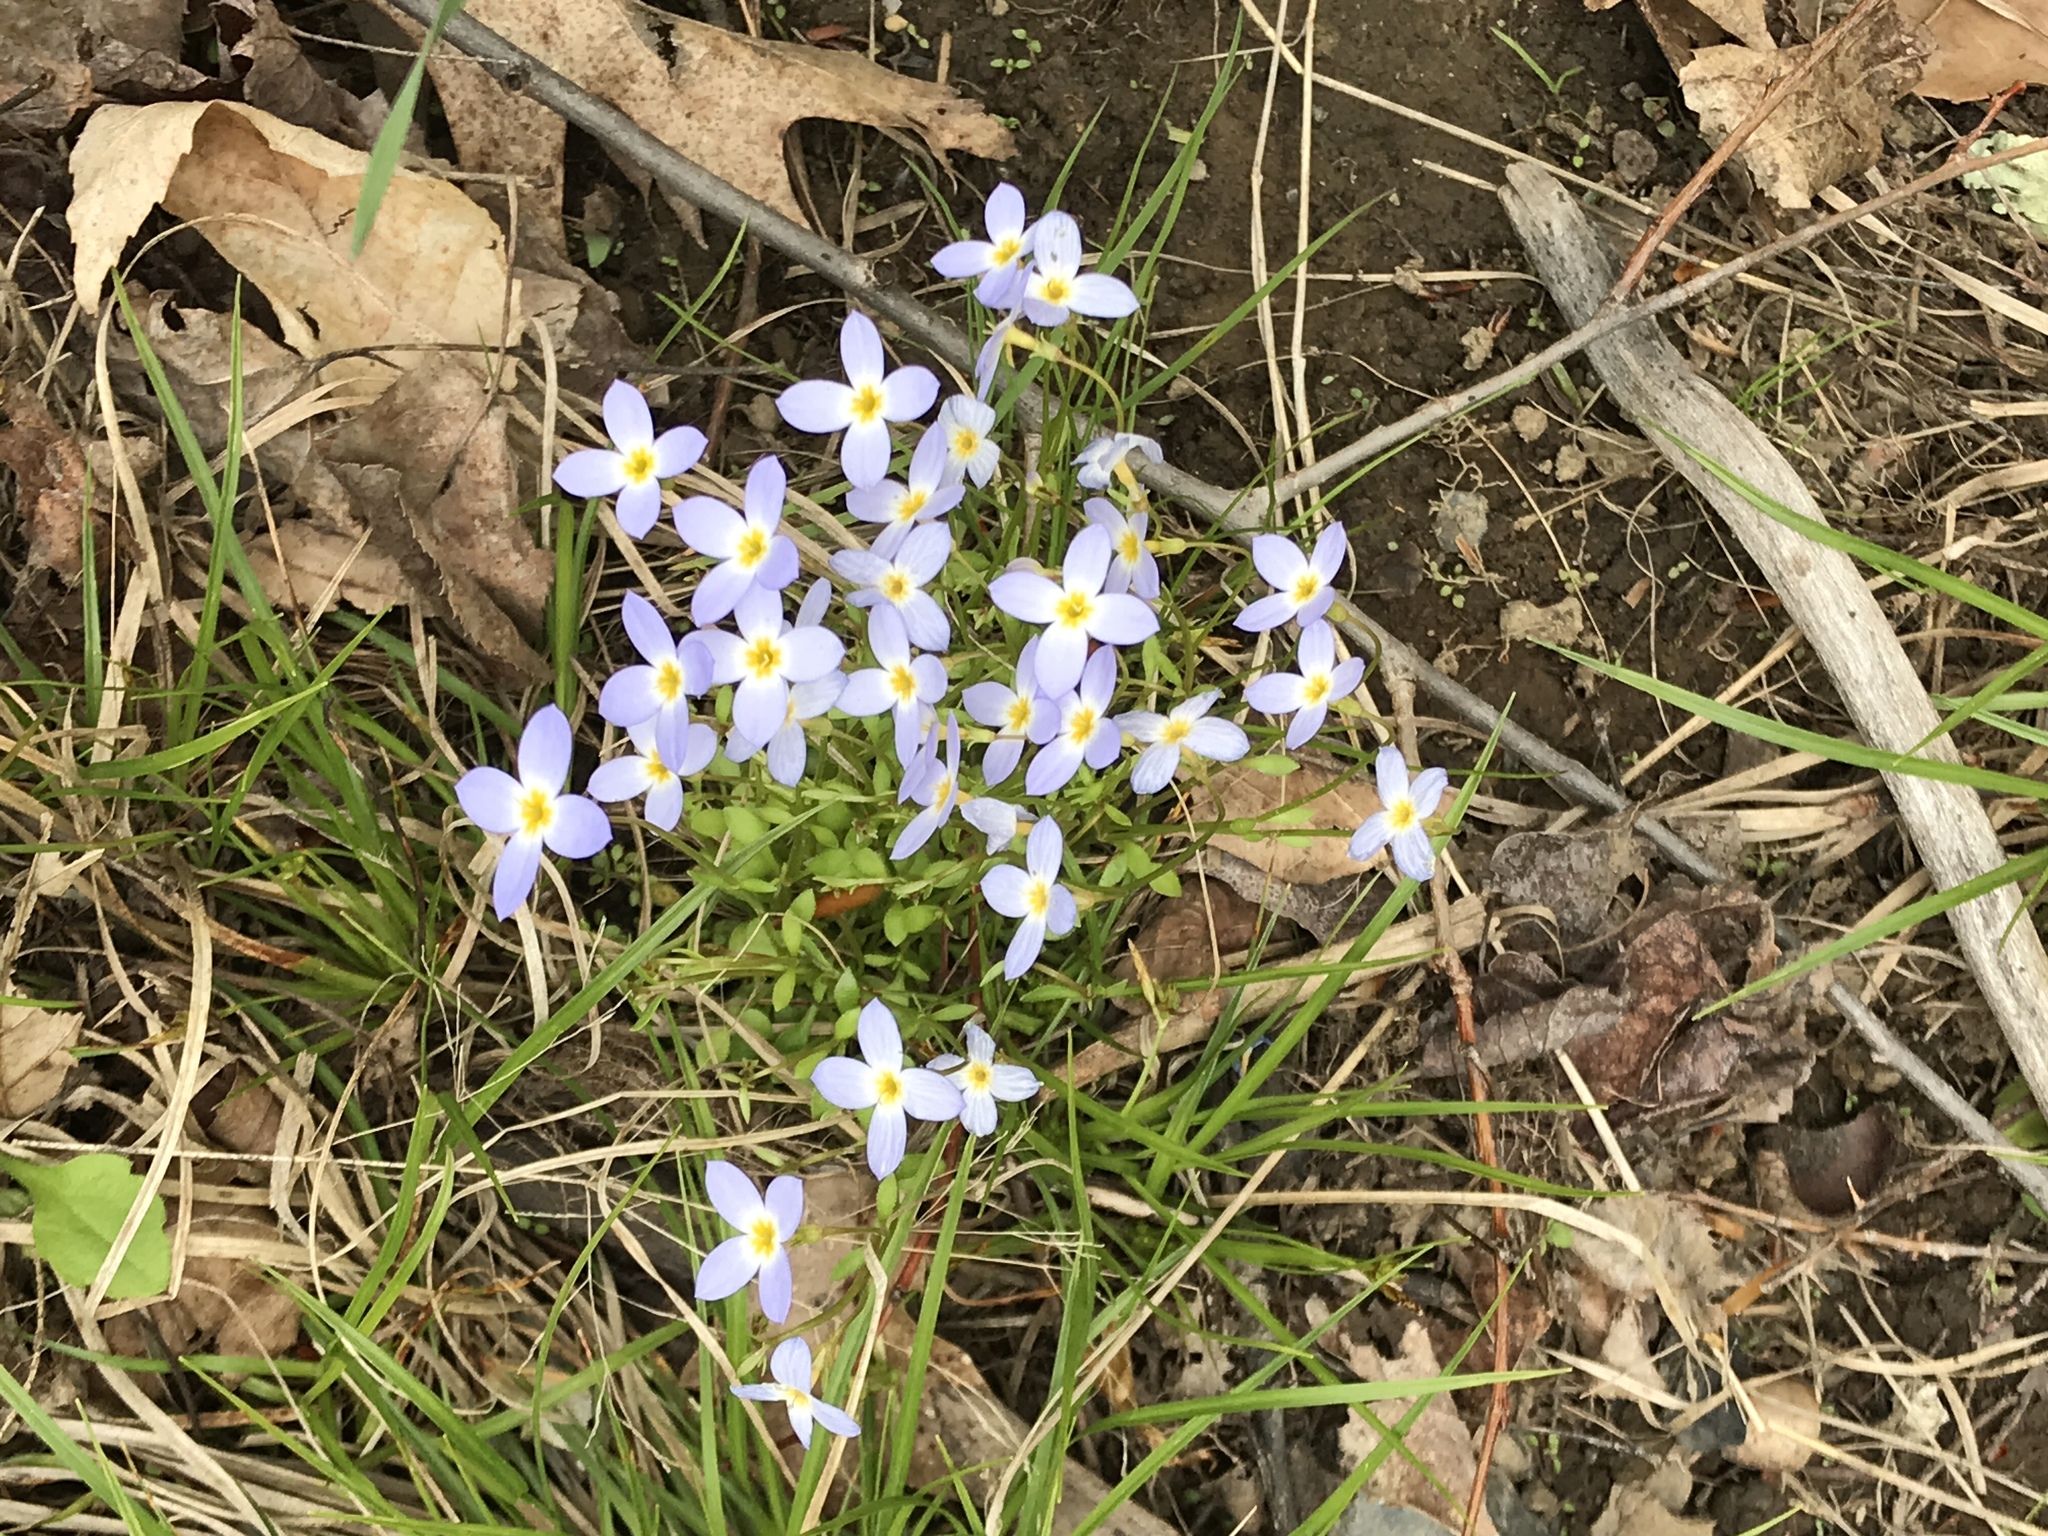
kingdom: Plantae
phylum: Tracheophyta
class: Magnoliopsida
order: Gentianales
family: Rubiaceae
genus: Houstonia
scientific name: Houstonia caerulea
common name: Bluets
